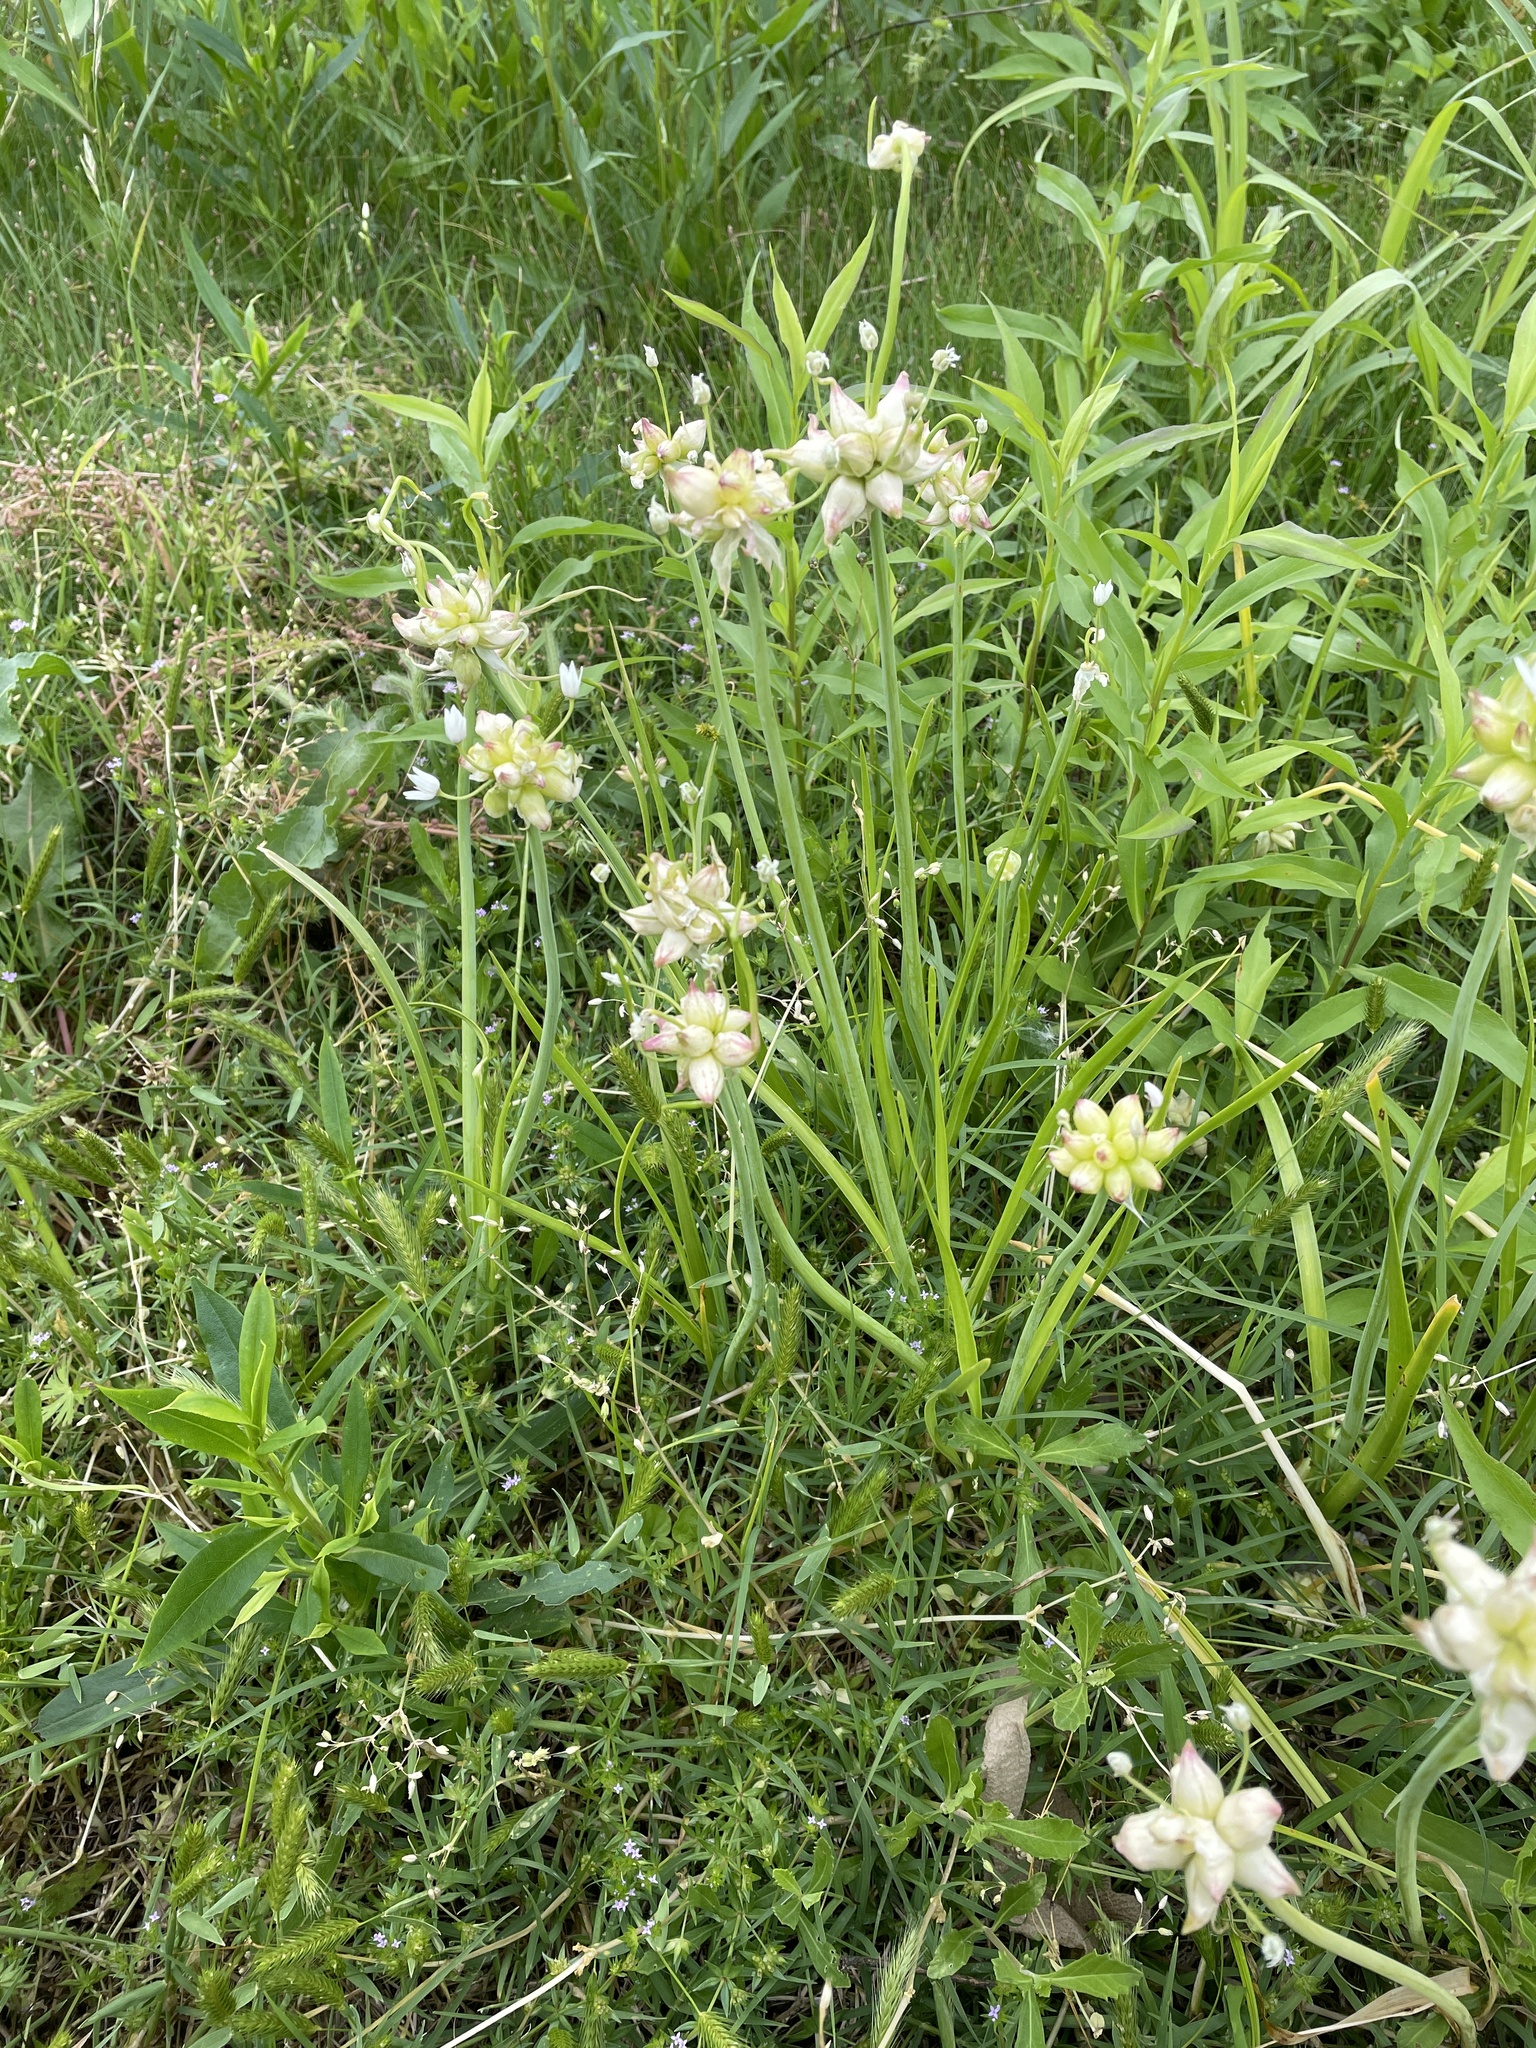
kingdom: Plantae
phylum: Tracheophyta
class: Liliopsida
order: Asparagales
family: Amaryllidaceae
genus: Allium
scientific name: Allium canadense
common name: Meadow garlic
